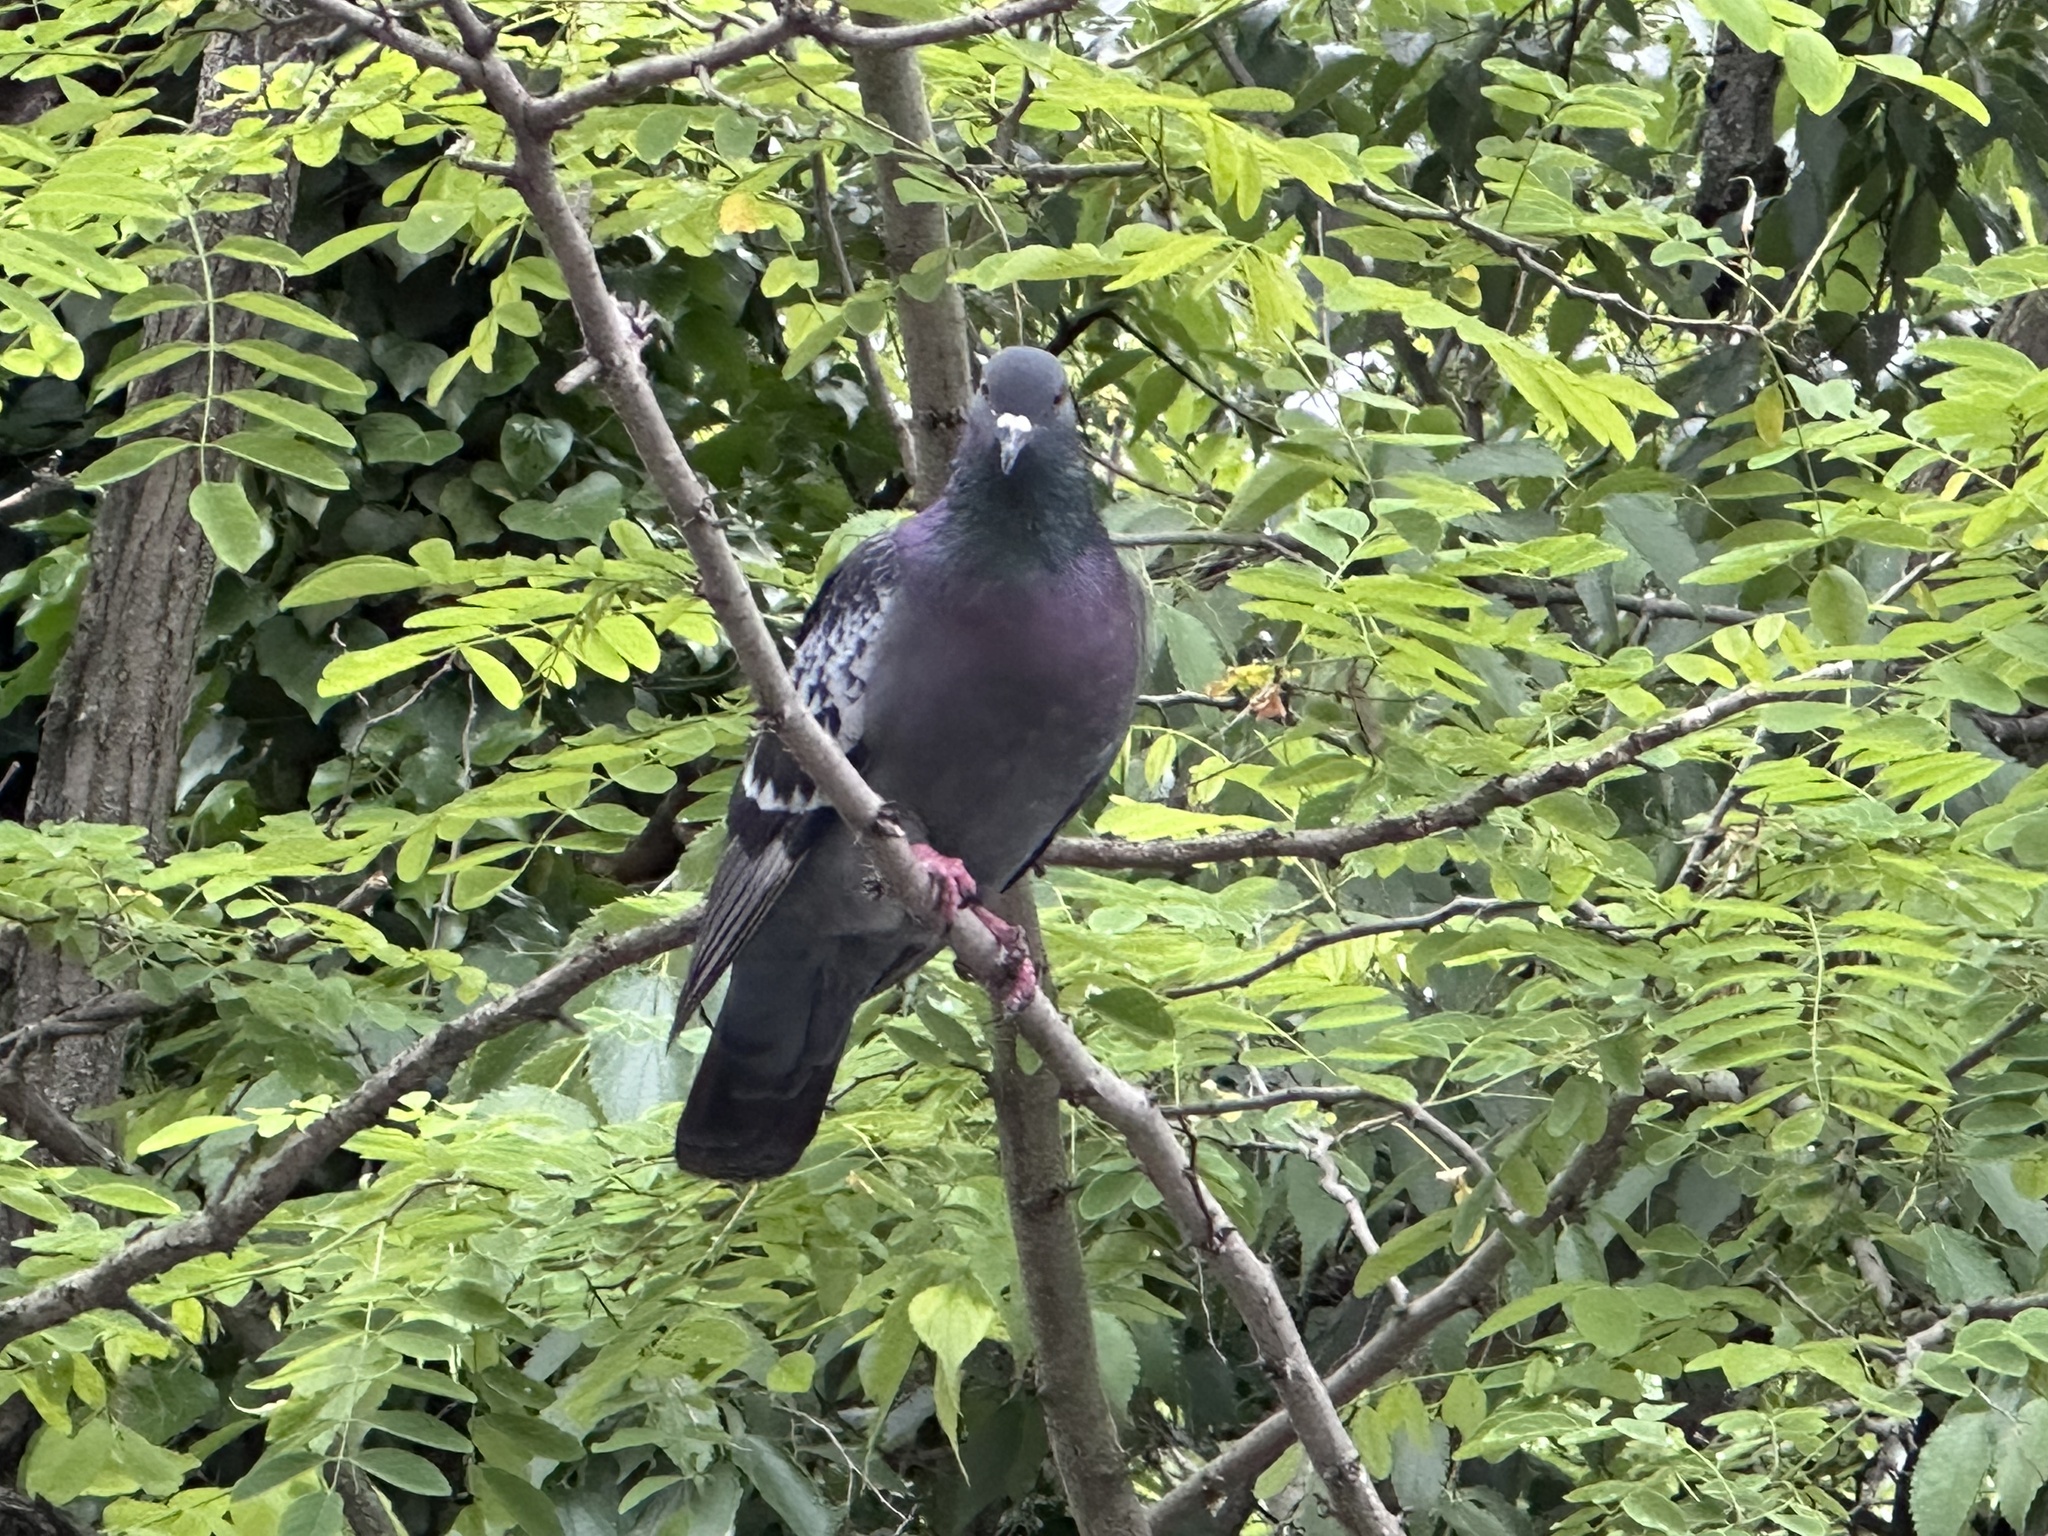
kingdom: Animalia
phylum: Chordata
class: Aves
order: Columbiformes
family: Columbidae
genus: Columba
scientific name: Columba livia
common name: Rock pigeon
